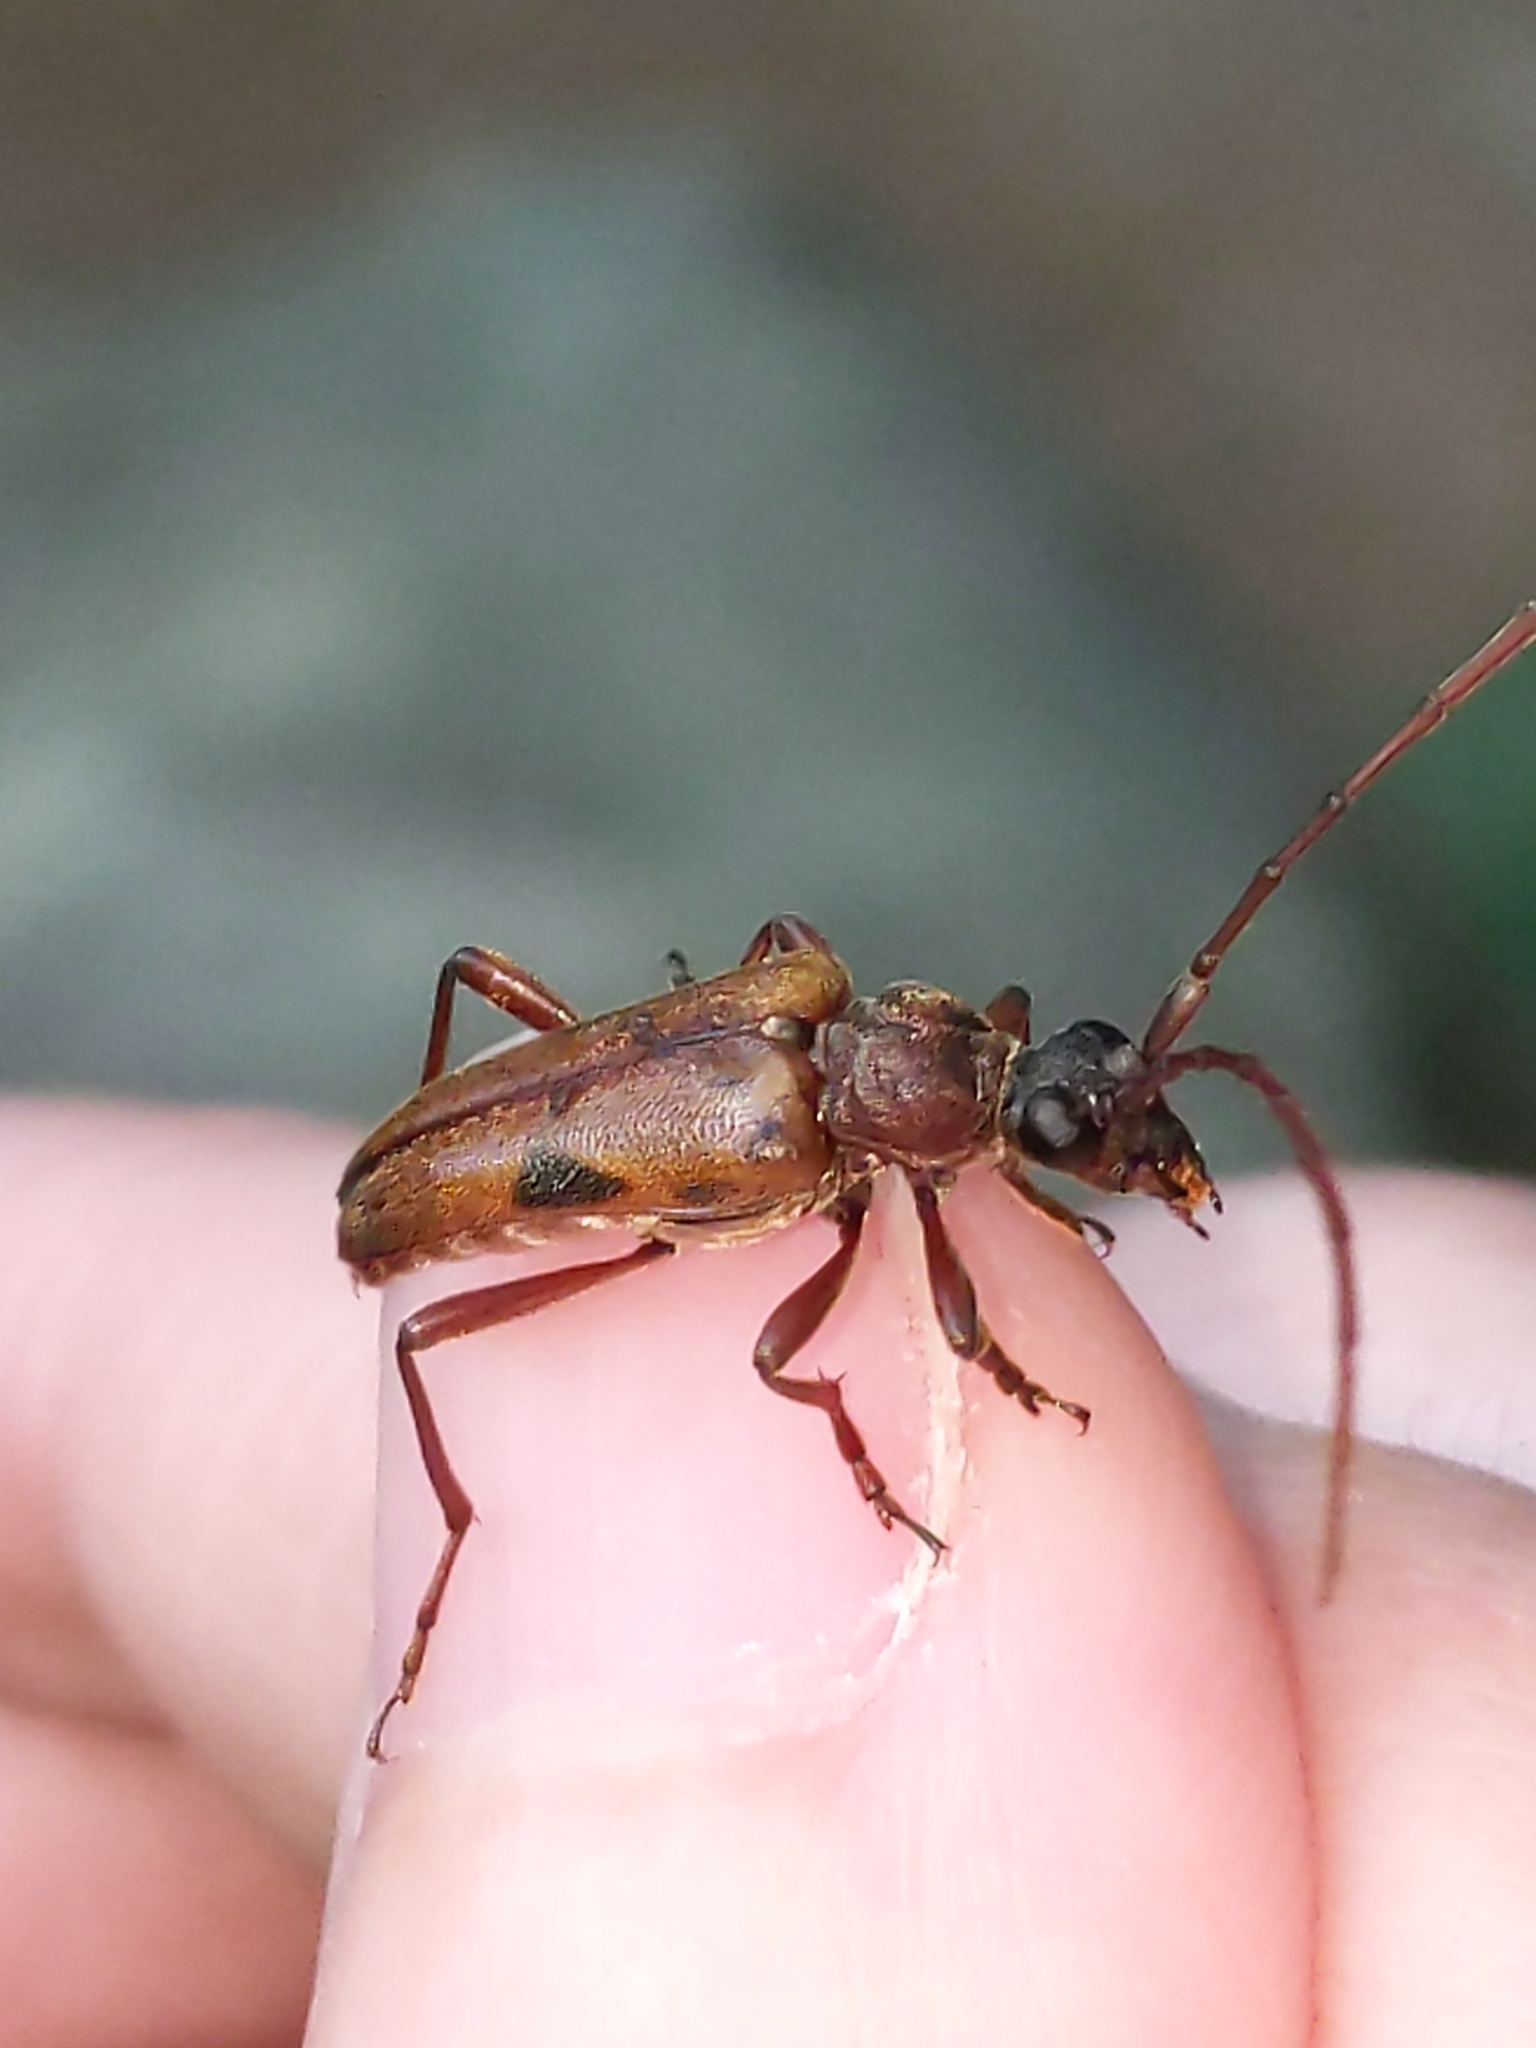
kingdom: Animalia
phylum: Arthropoda
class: Insecta
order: Coleoptera
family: Cerambycidae
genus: Lepturopsis
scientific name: Lepturopsis biforis
